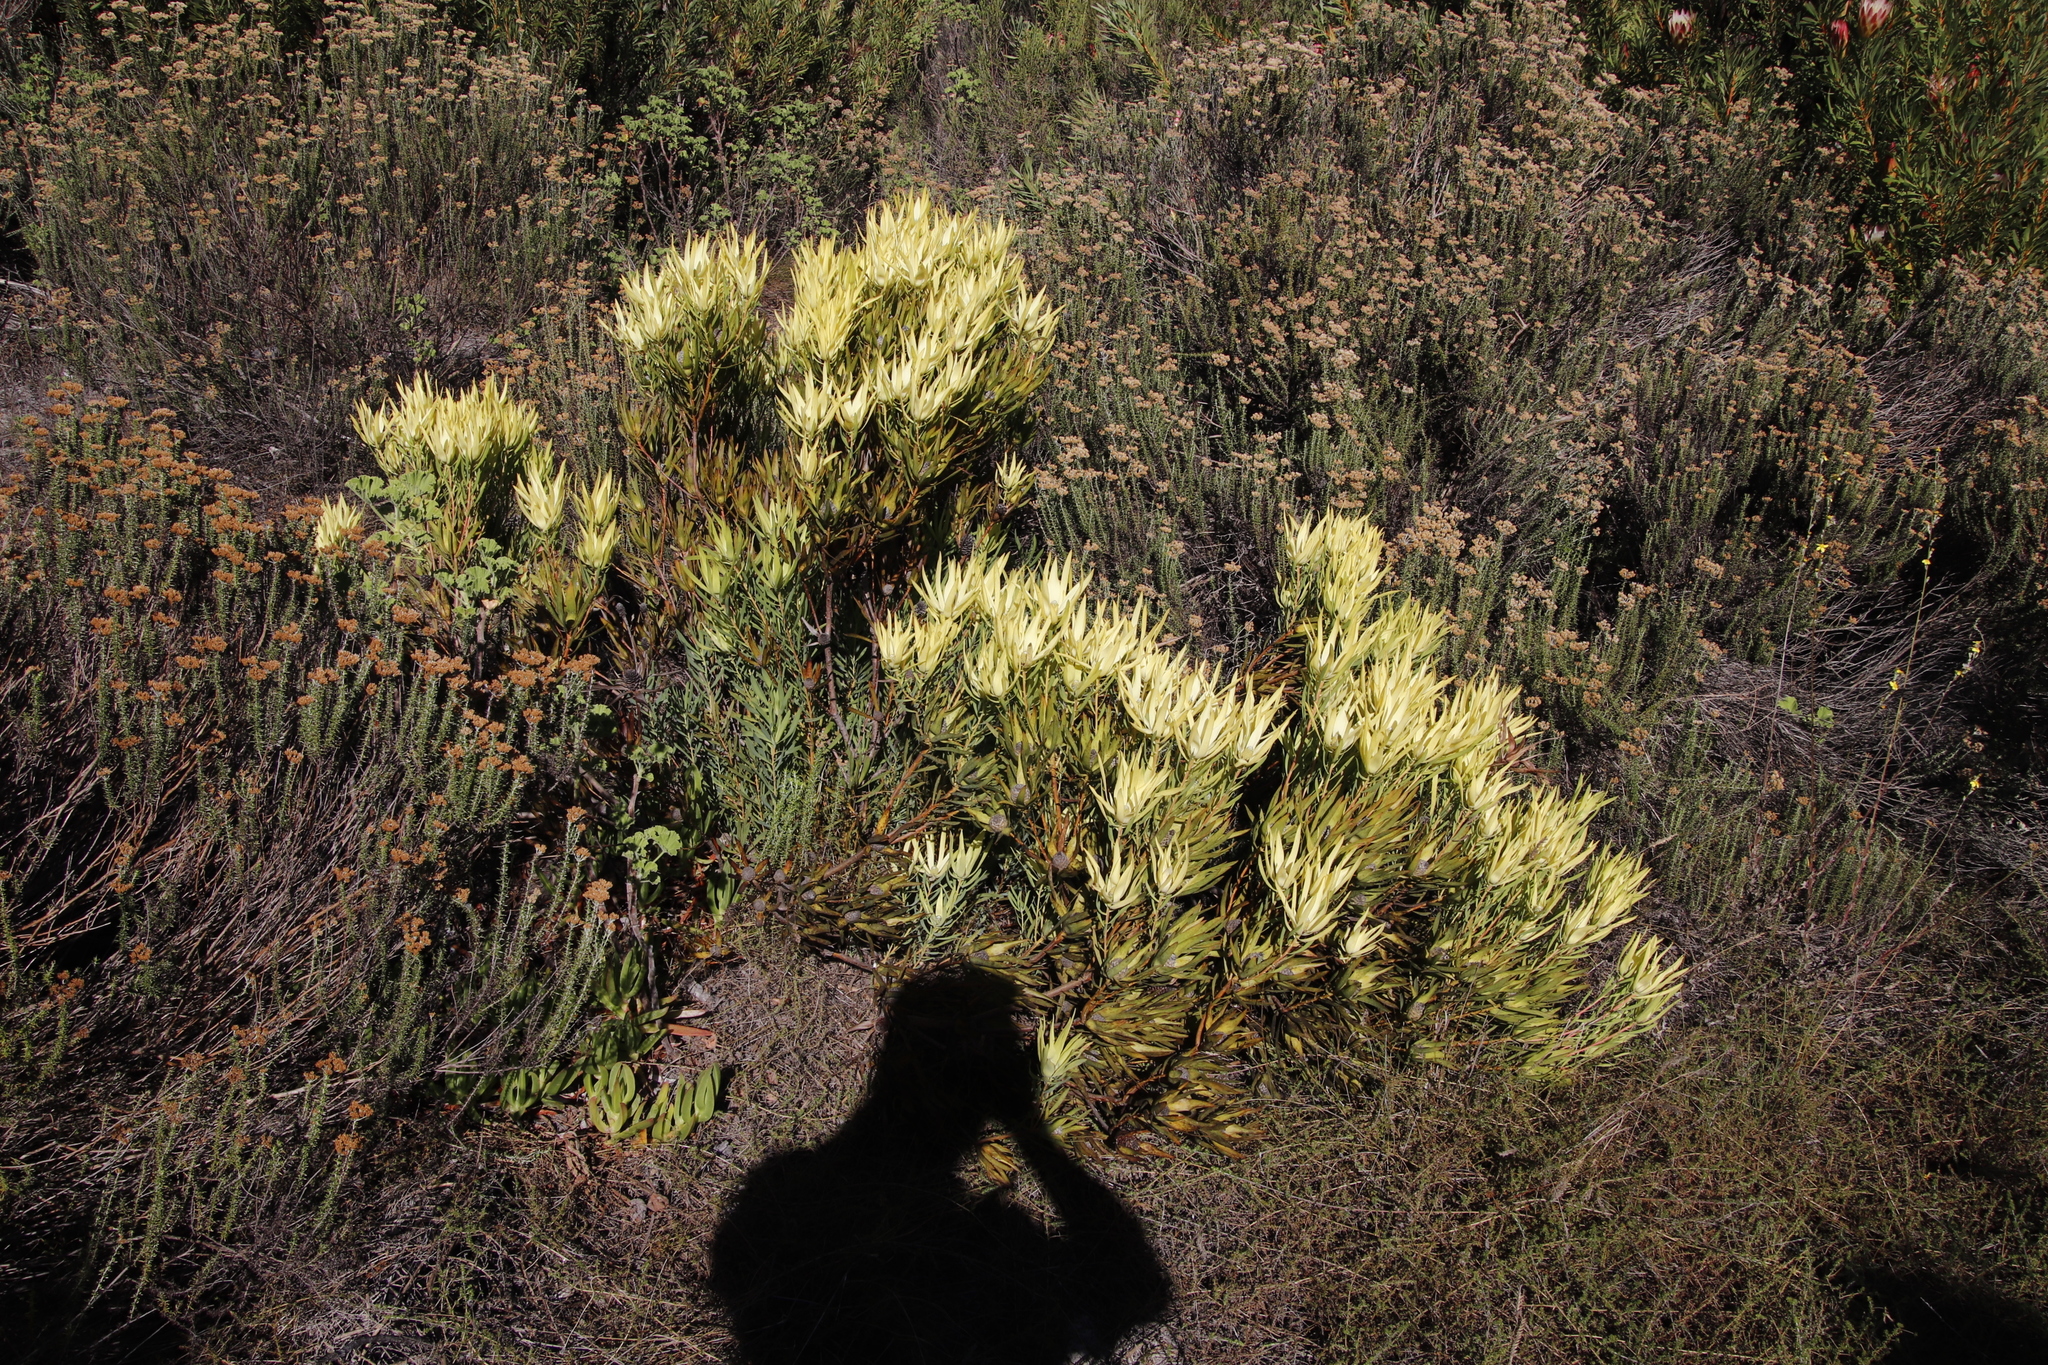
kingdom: Plantae
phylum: Tracheophyta
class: Magnoliopsida
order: Proteales
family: Proteaceae
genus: Leucadendron
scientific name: Leucadendron salignum
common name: Common sunshine conebush
